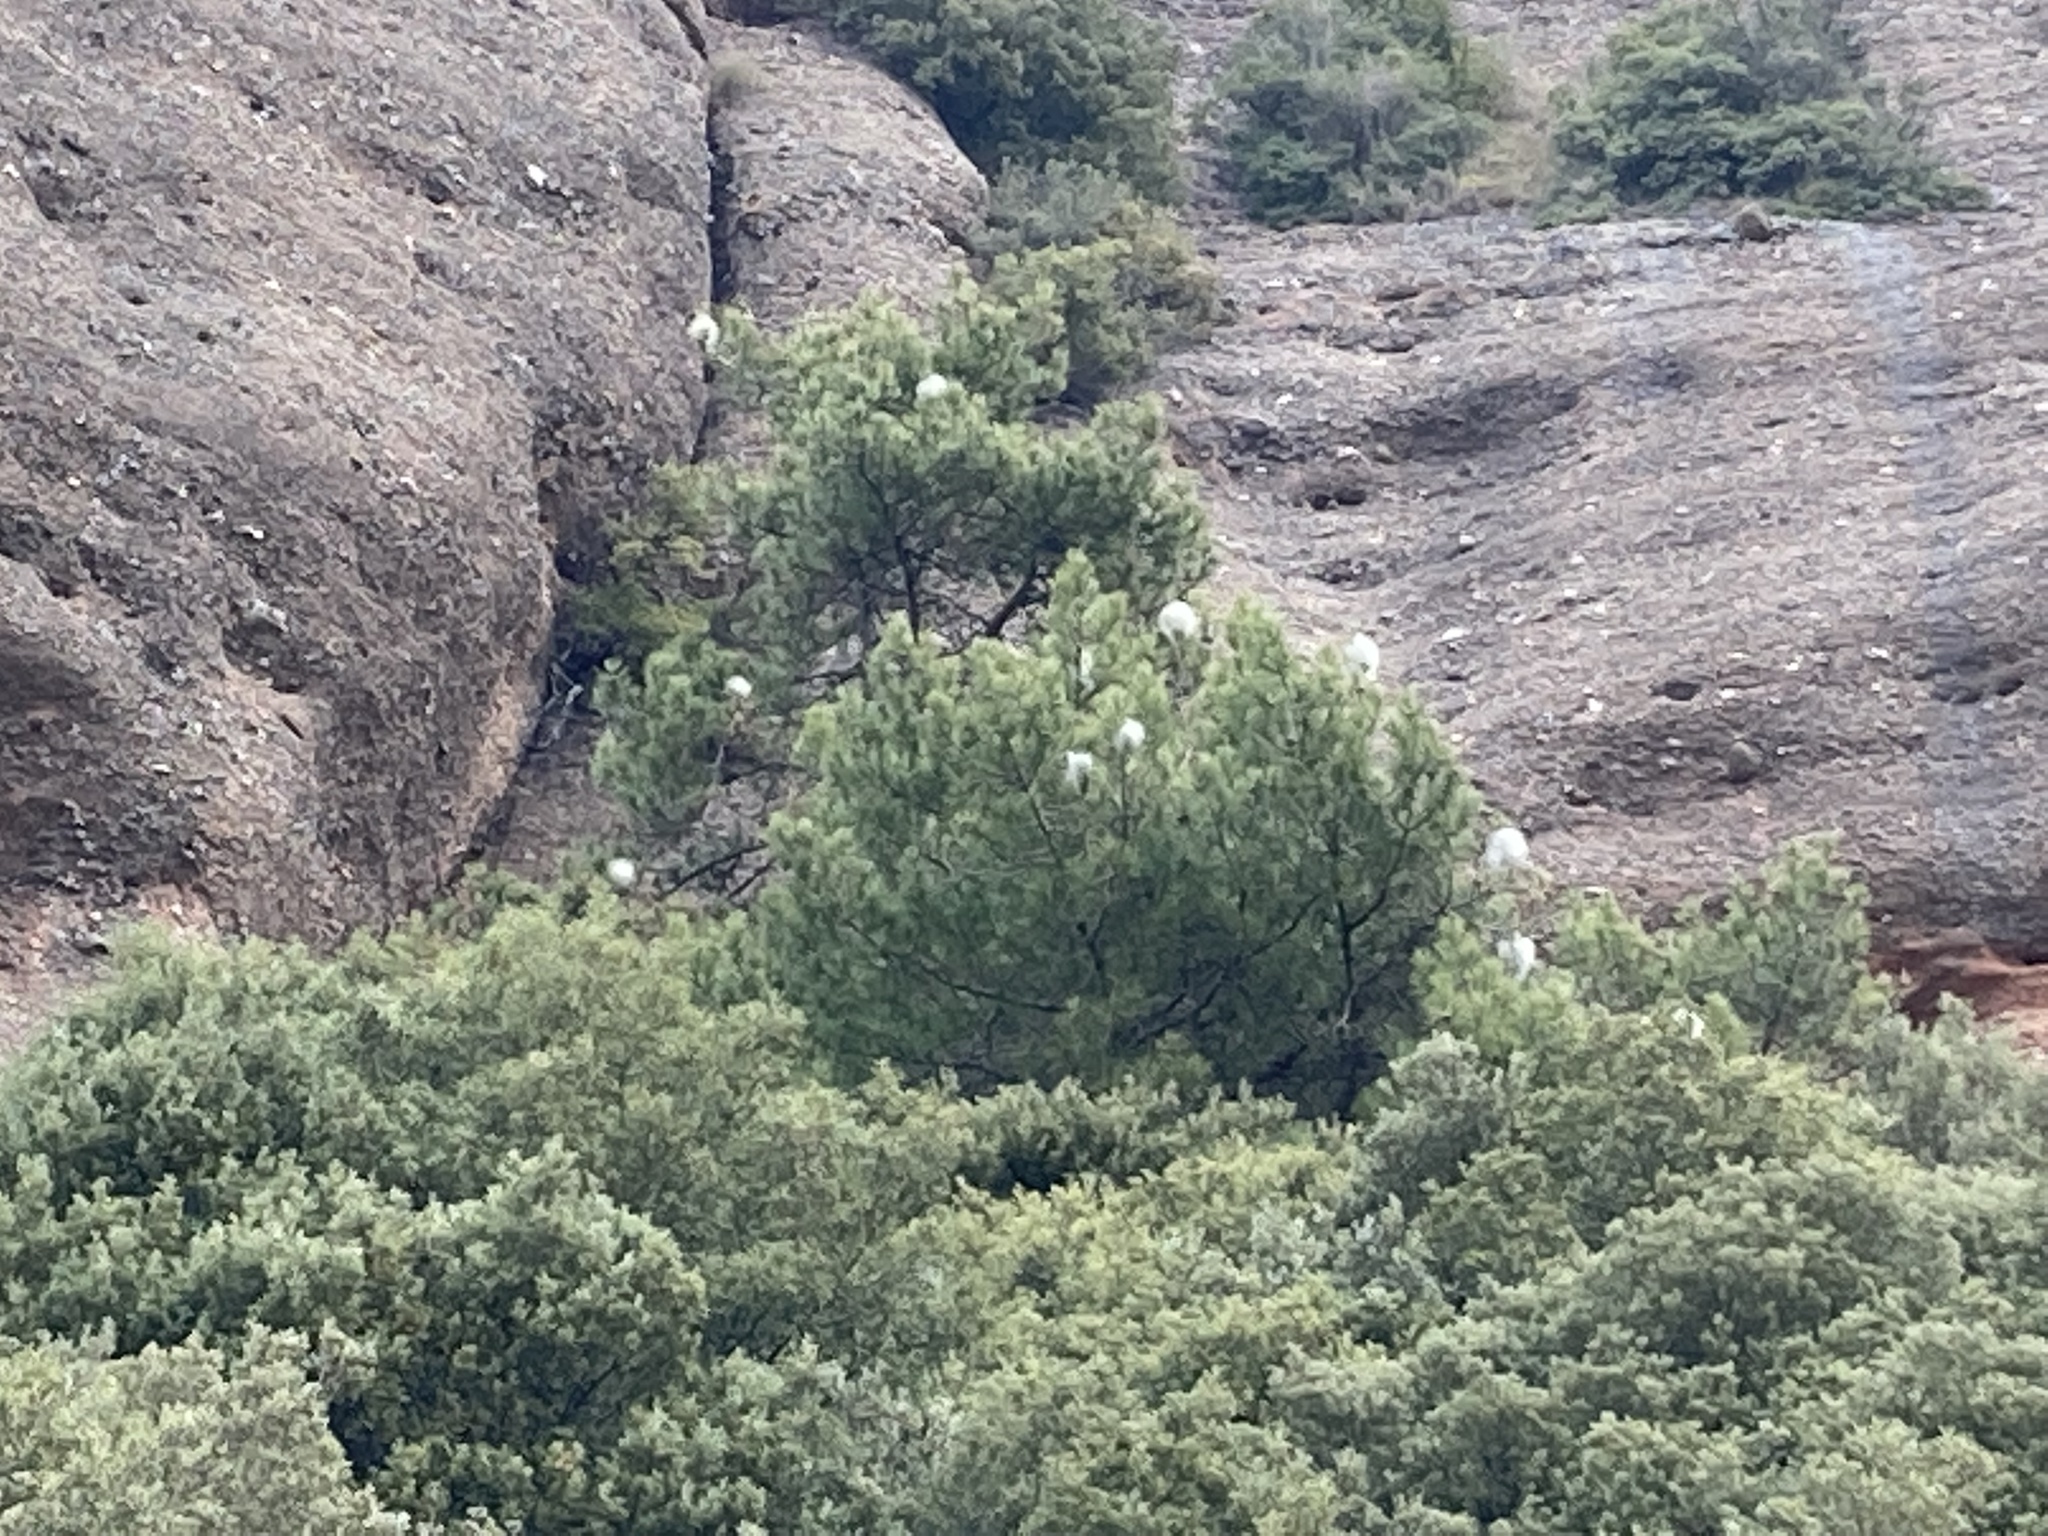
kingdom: Animalia
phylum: Arthropoda
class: Insecta
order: Lepidoptera
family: Notodontidae
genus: Thaumetopoea
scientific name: Thaumetopoea pityocampa
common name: Pine processionary
